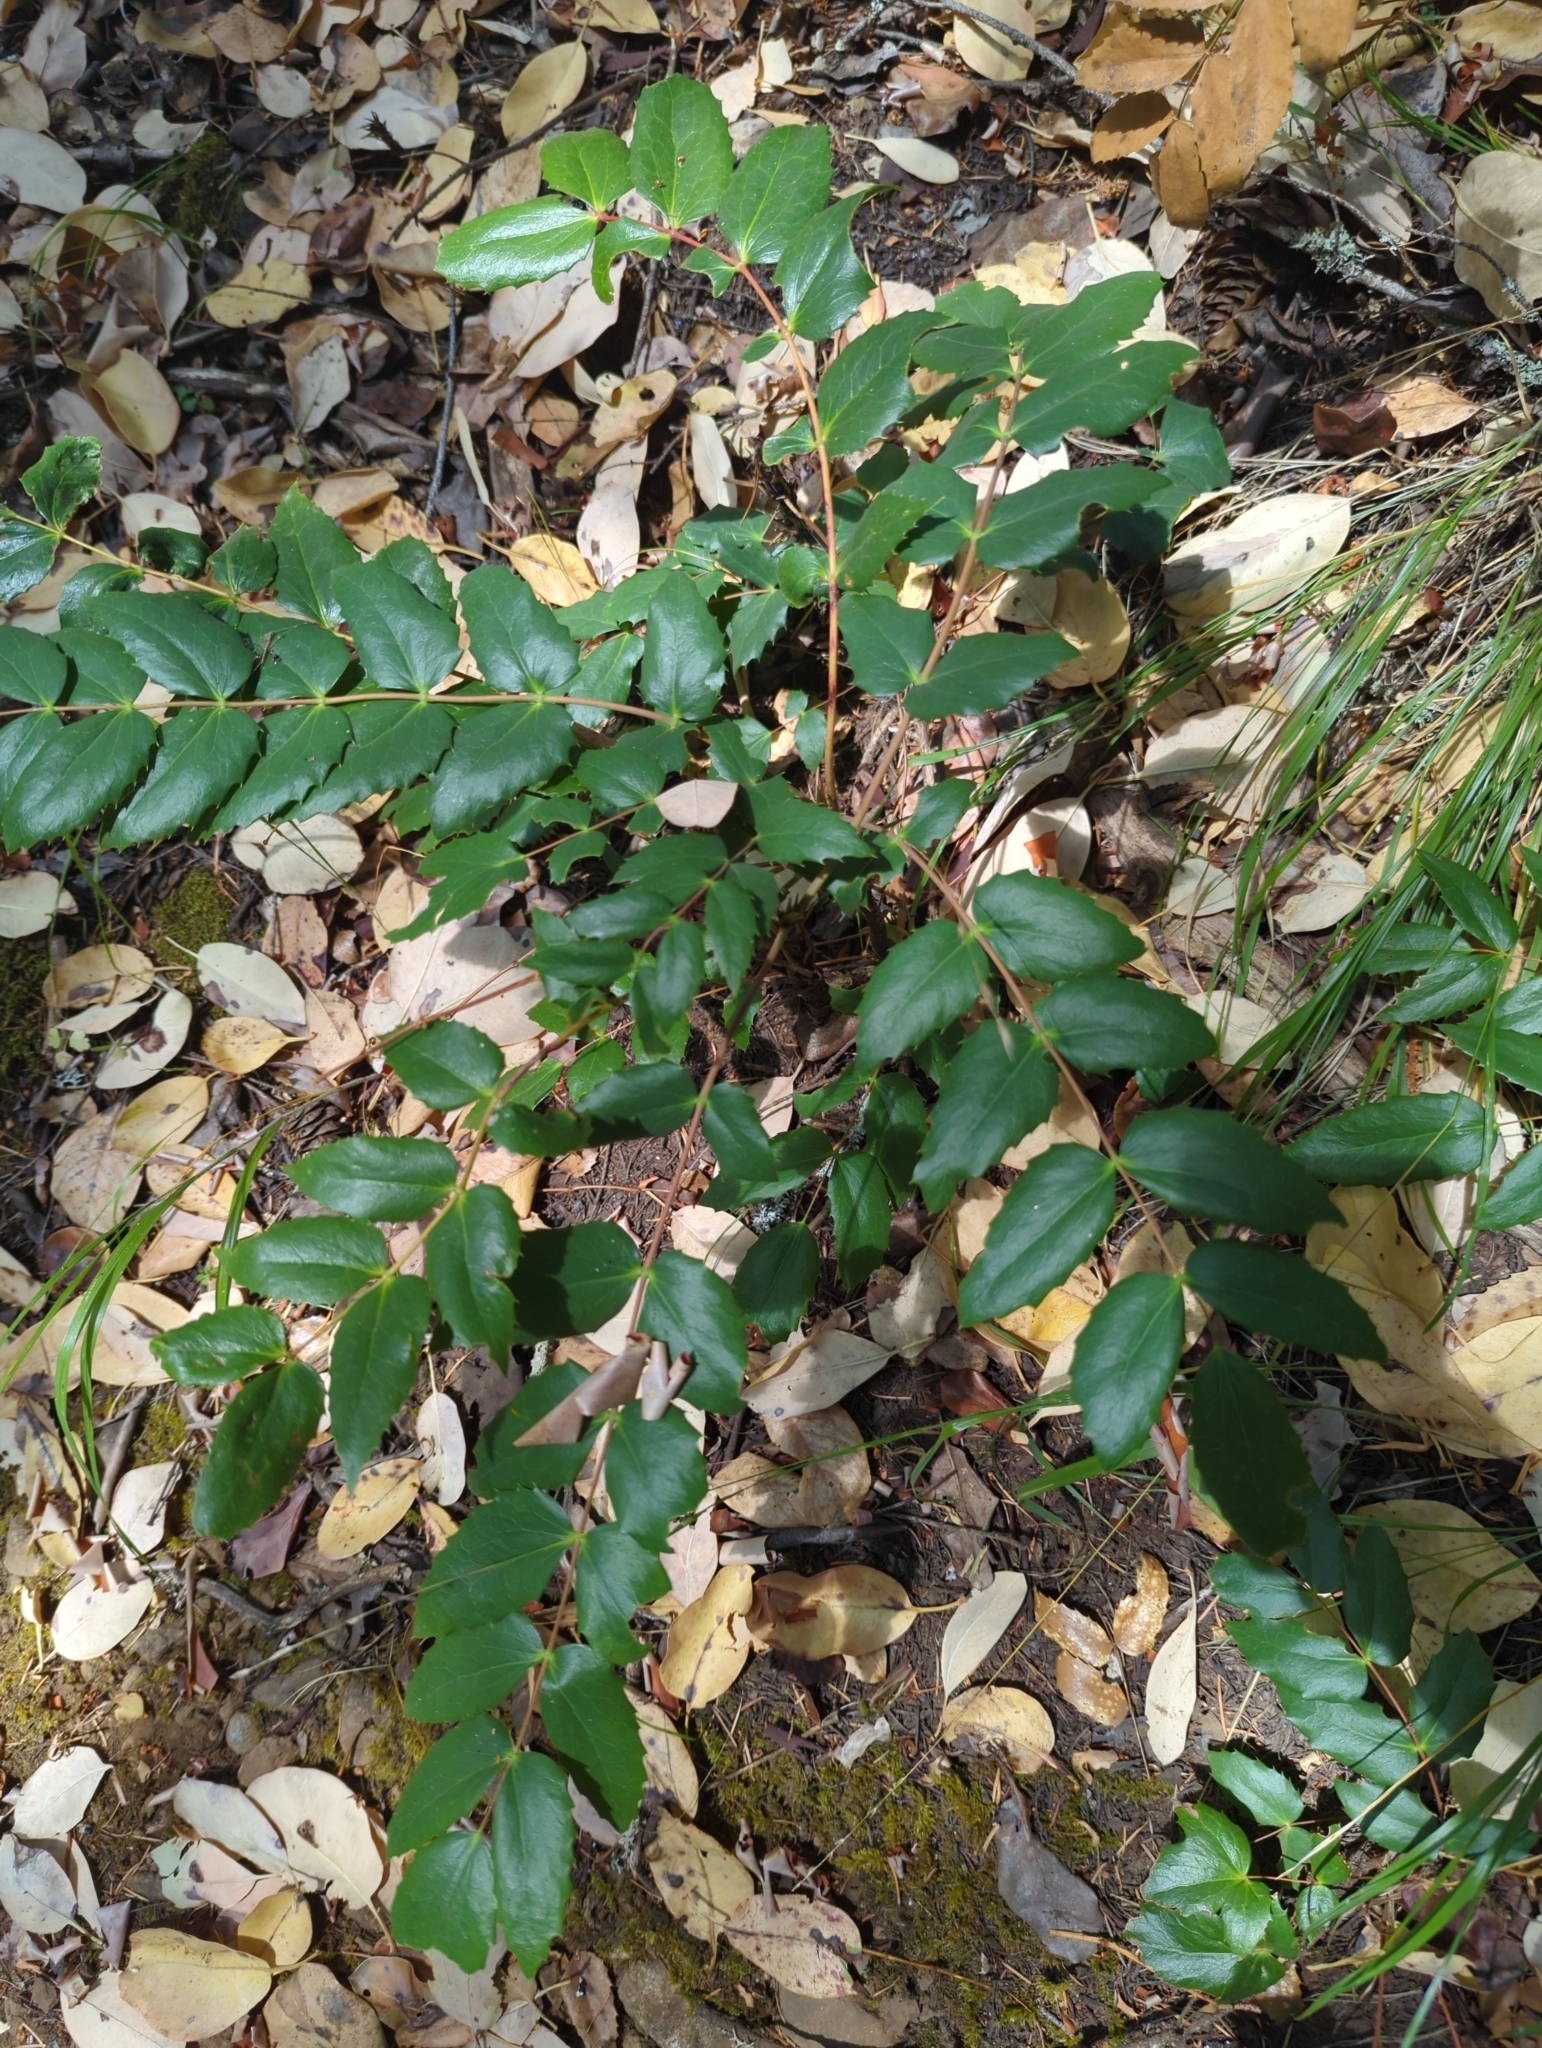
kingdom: Plantae
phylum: Tracheophyta
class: Magnoliopsida
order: Ranunculales
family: Berberidaceae
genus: Mahonia
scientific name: Mahonia nervosa
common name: Cascade oregon-grape
